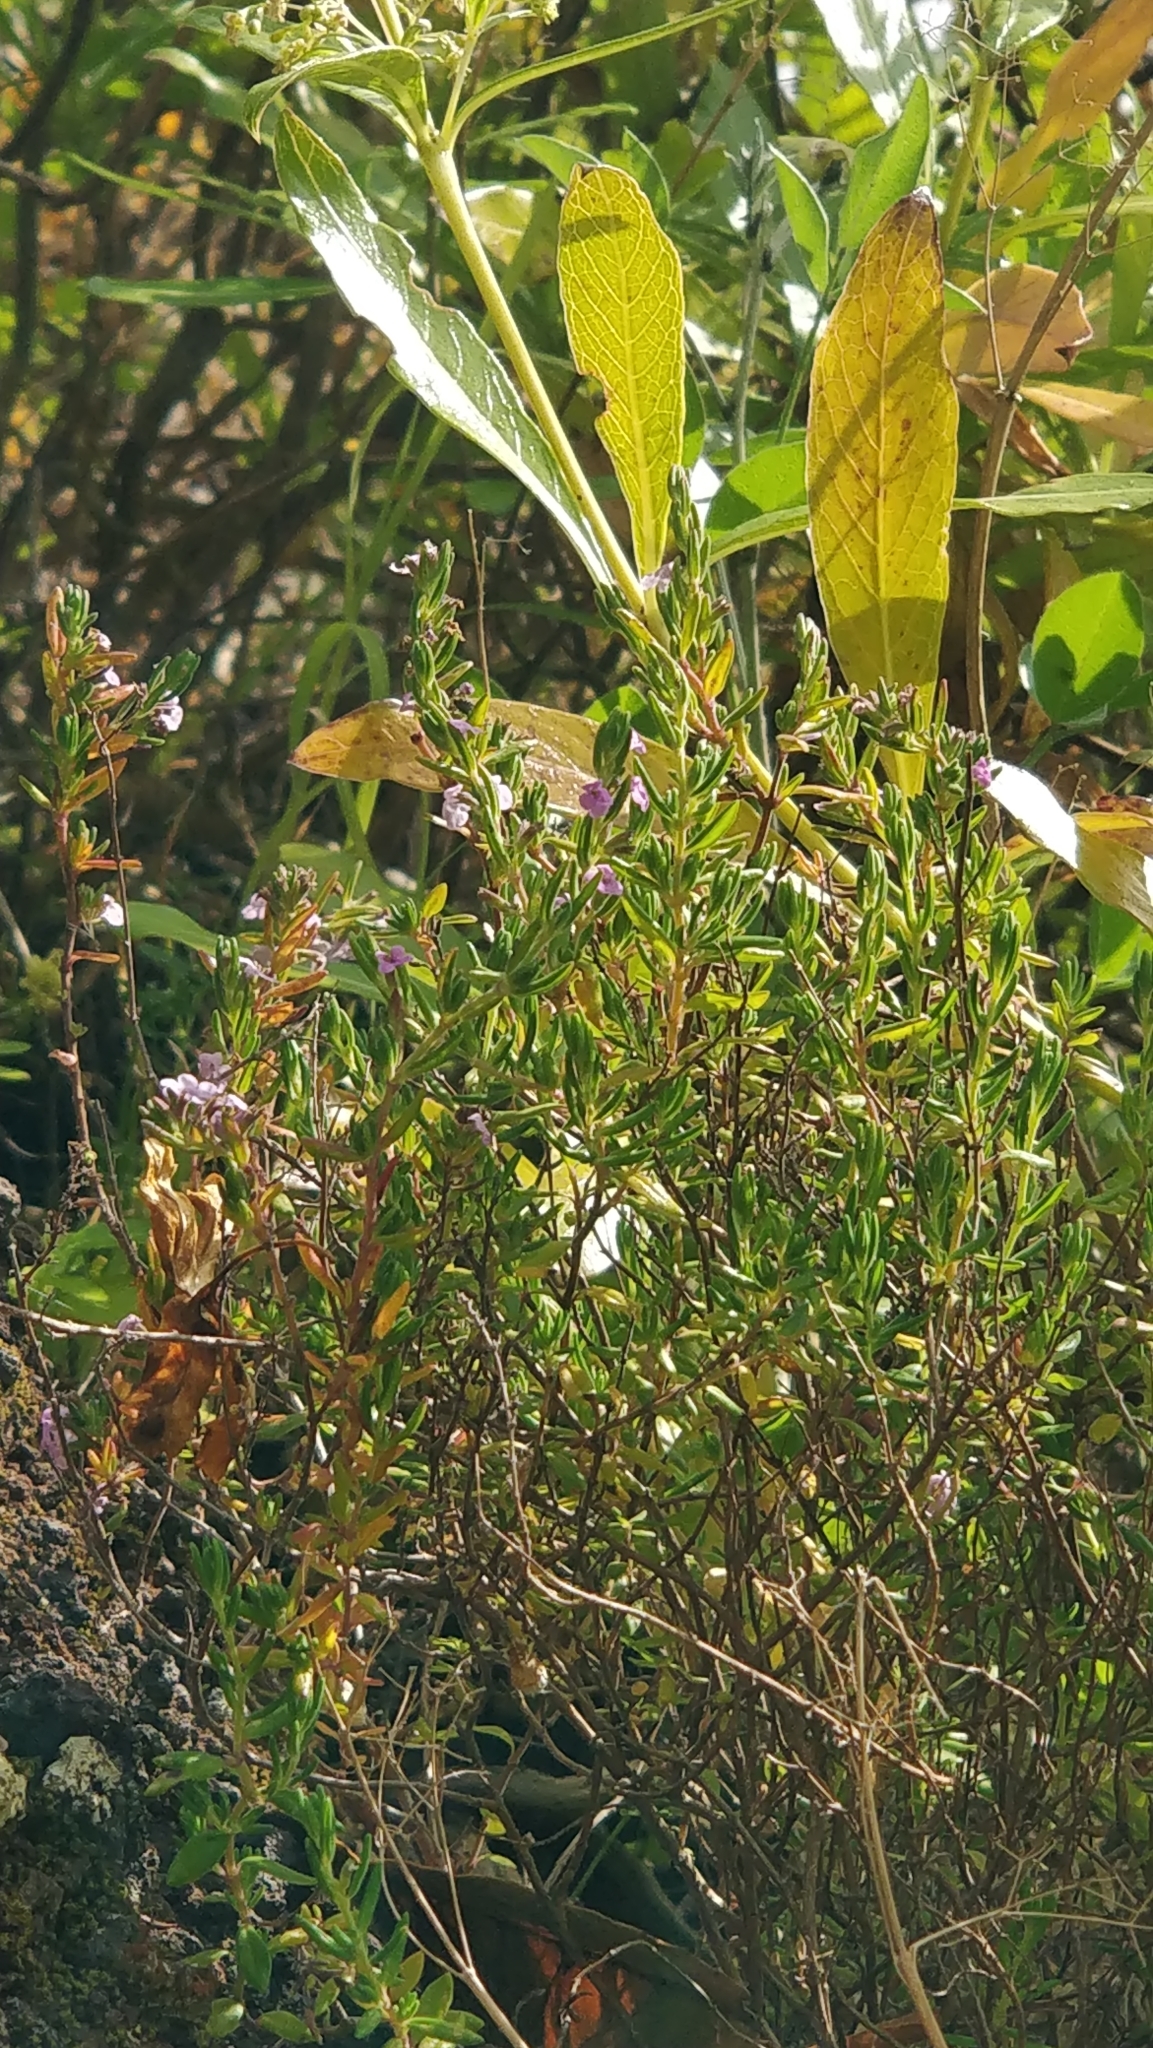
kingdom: Plantae
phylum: Tracheophyta
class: Magnoliopsida
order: Lamiales
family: Lamiaceae
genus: Micromeria
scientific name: Micromeria maderensis
